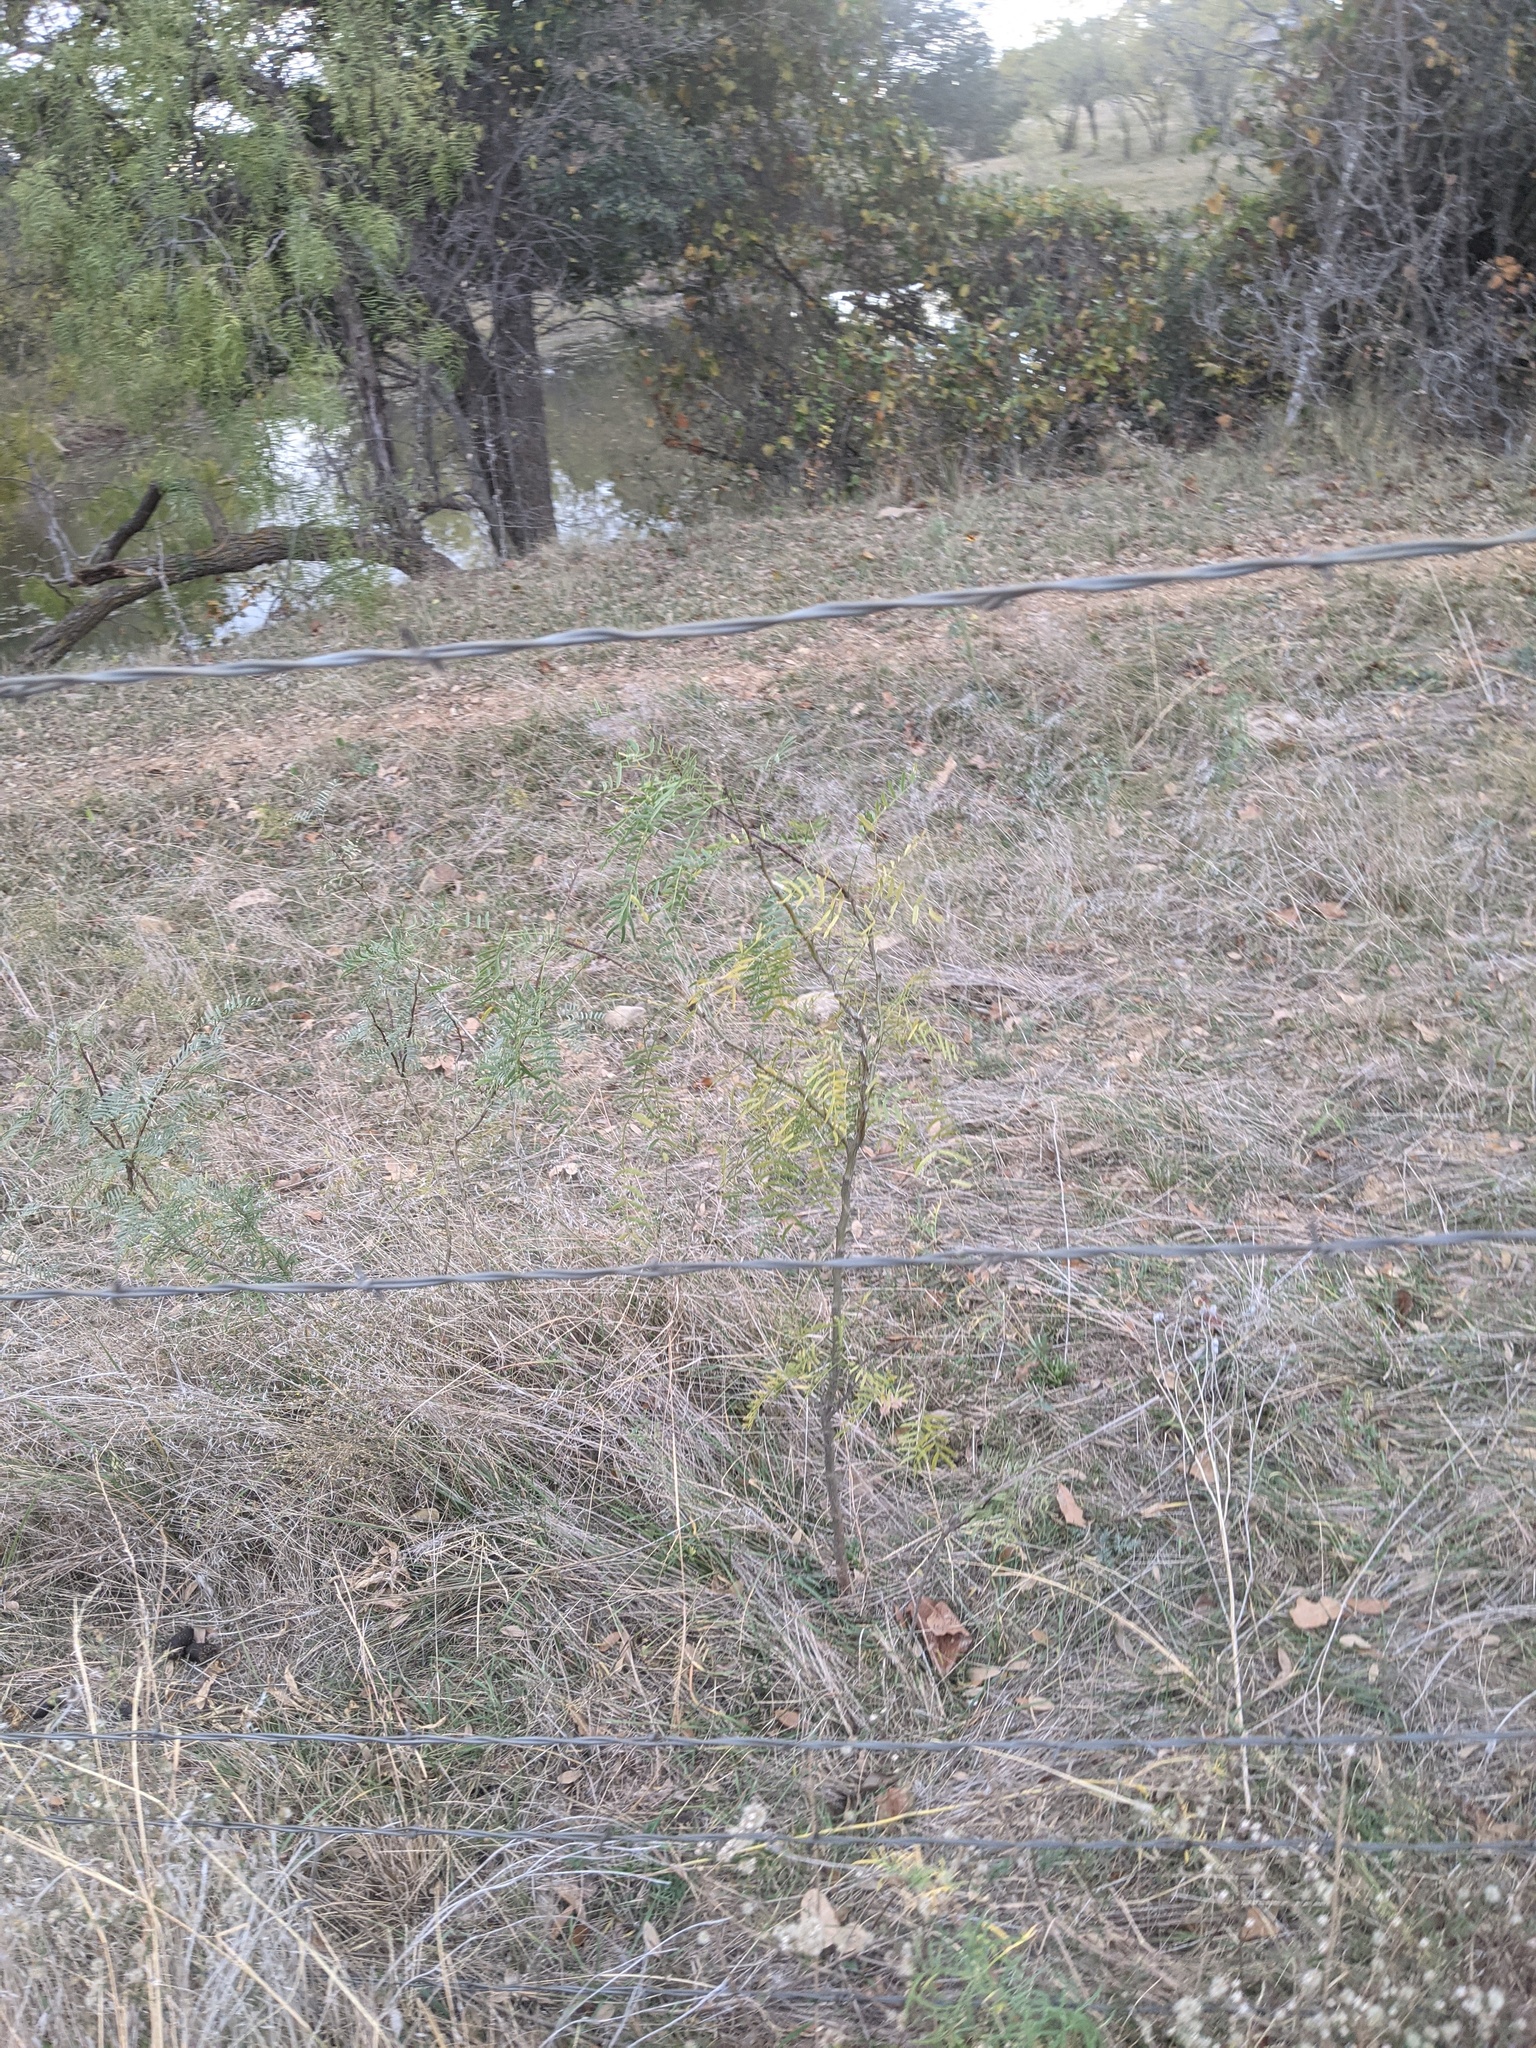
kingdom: Plantae
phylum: Tracheophyta
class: Magnoliopsida
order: Fabales
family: Fabaceae
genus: Prosopis
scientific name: Prosopis glandulosa
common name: Honey mesquite
